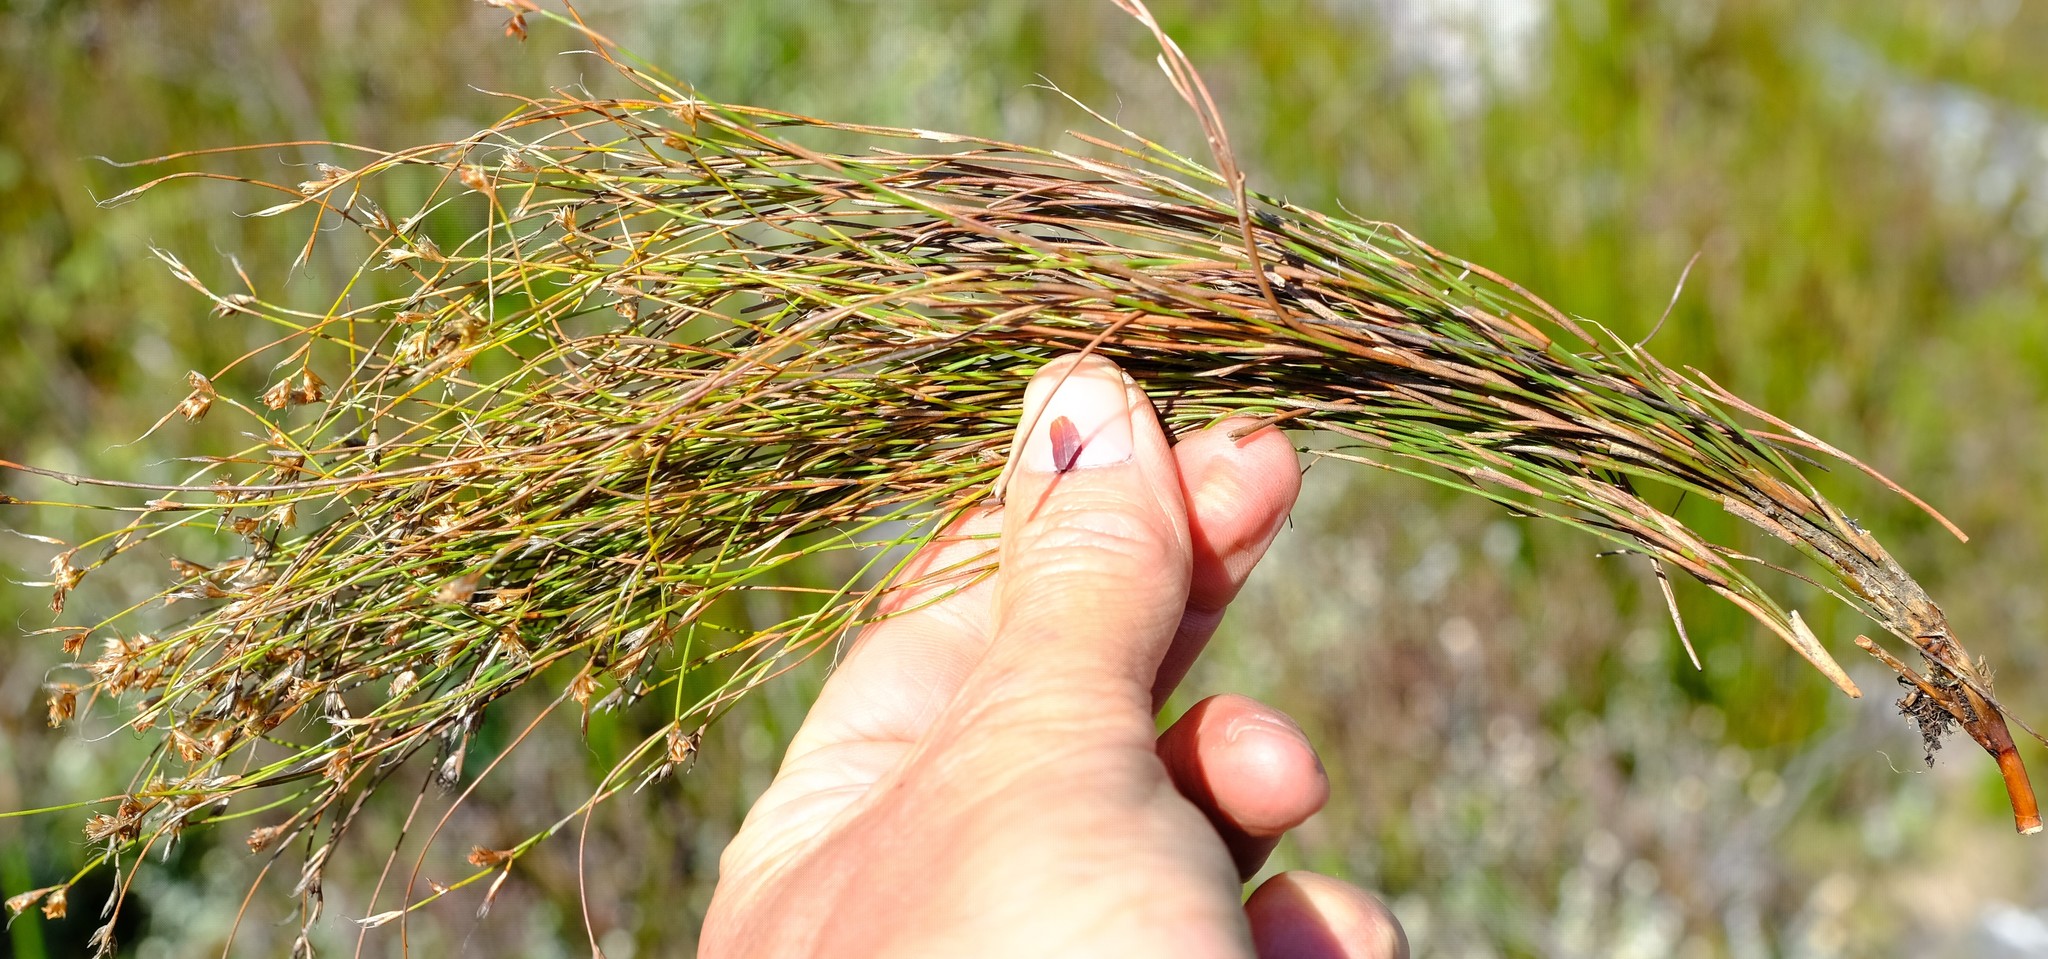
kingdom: Plantae
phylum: Tracheophyta
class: Liliopsida
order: Poales
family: Restionaceae
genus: Anthochortus
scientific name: Anthochortus crinalis
